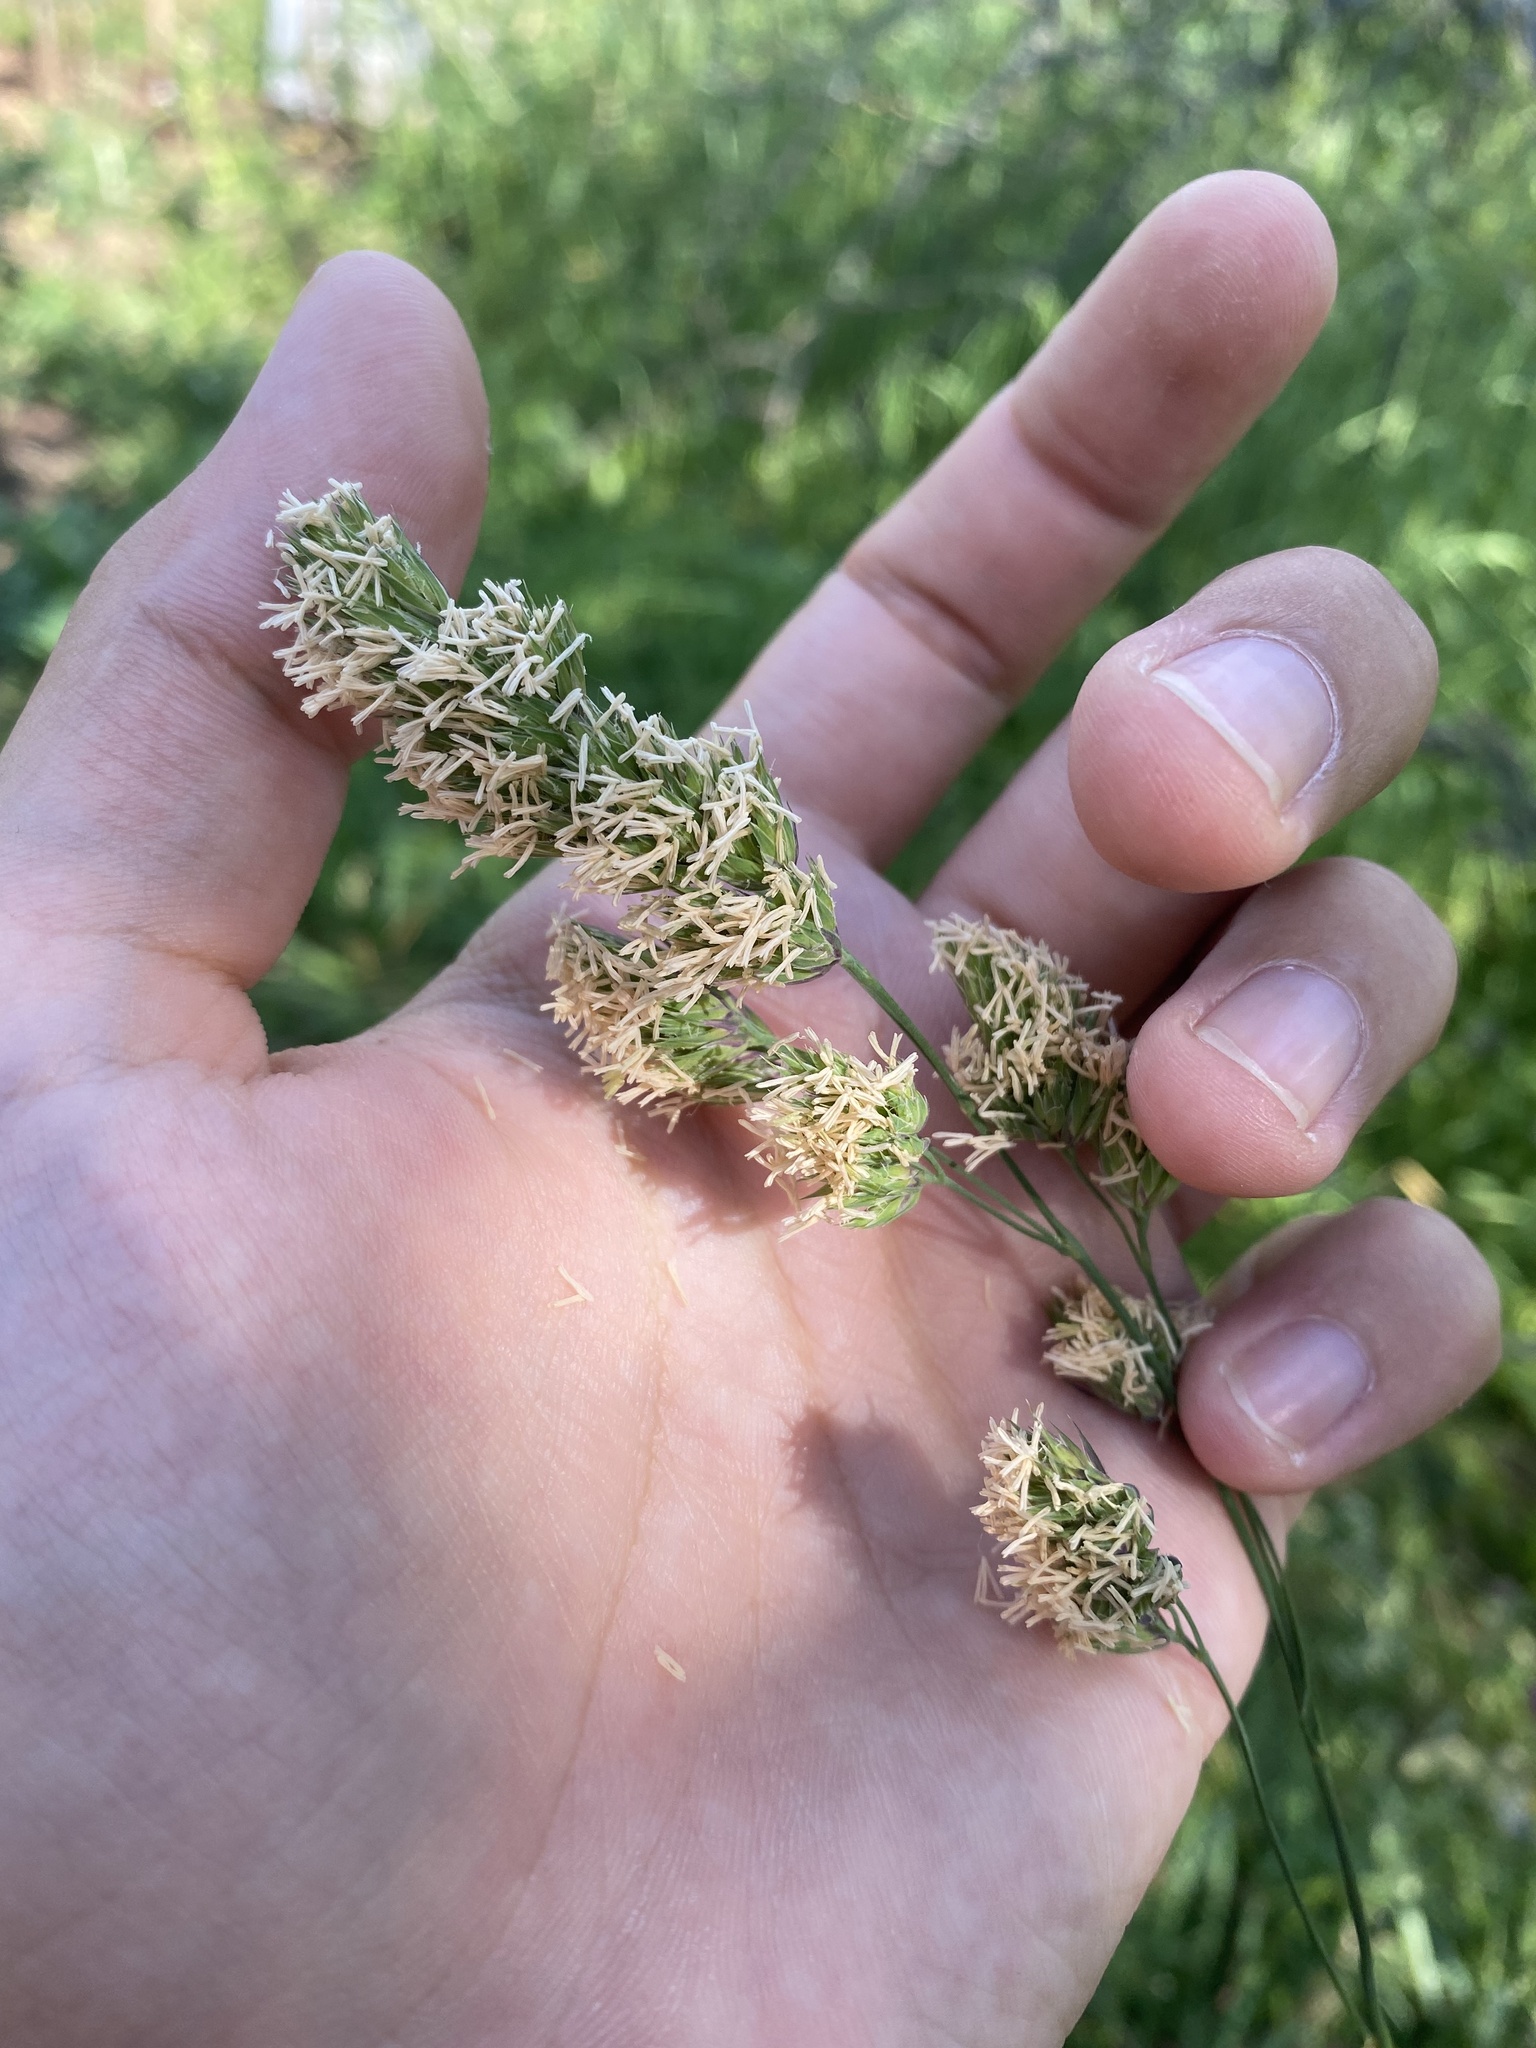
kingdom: Plantae
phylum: Tracheophyta
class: Liliopsida
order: Poales
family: Poaceae
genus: Dactylis
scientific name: Dactylis glomerata
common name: Orchardgrass
